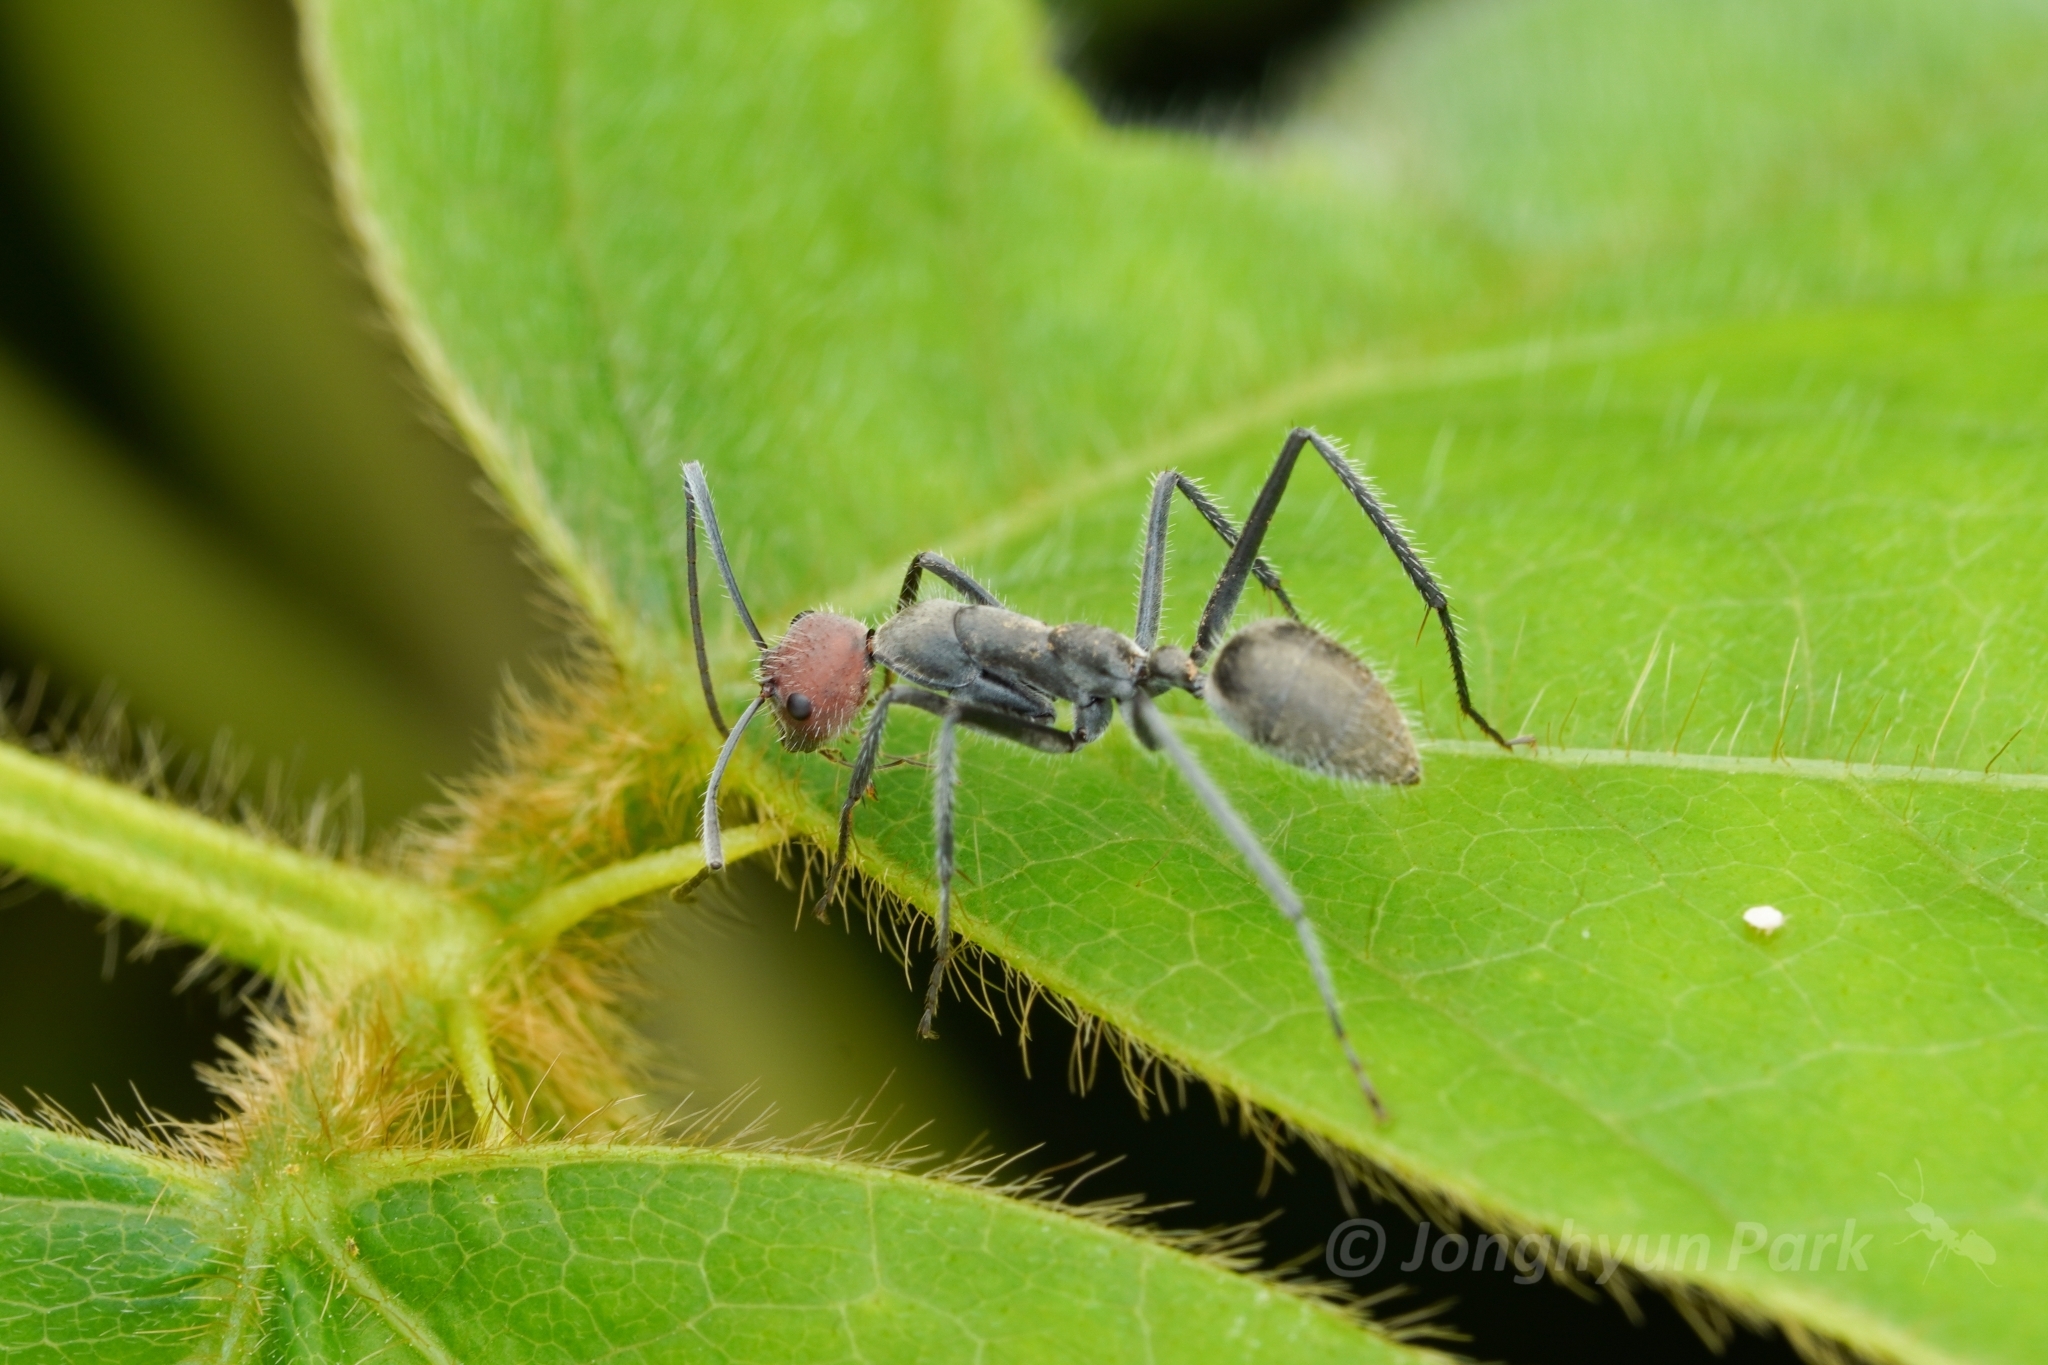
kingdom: Animalia
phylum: Arthropoda
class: Insecta
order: Hymenoptera
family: Formicidae
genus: Camponotus
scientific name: Camponotus singularis
